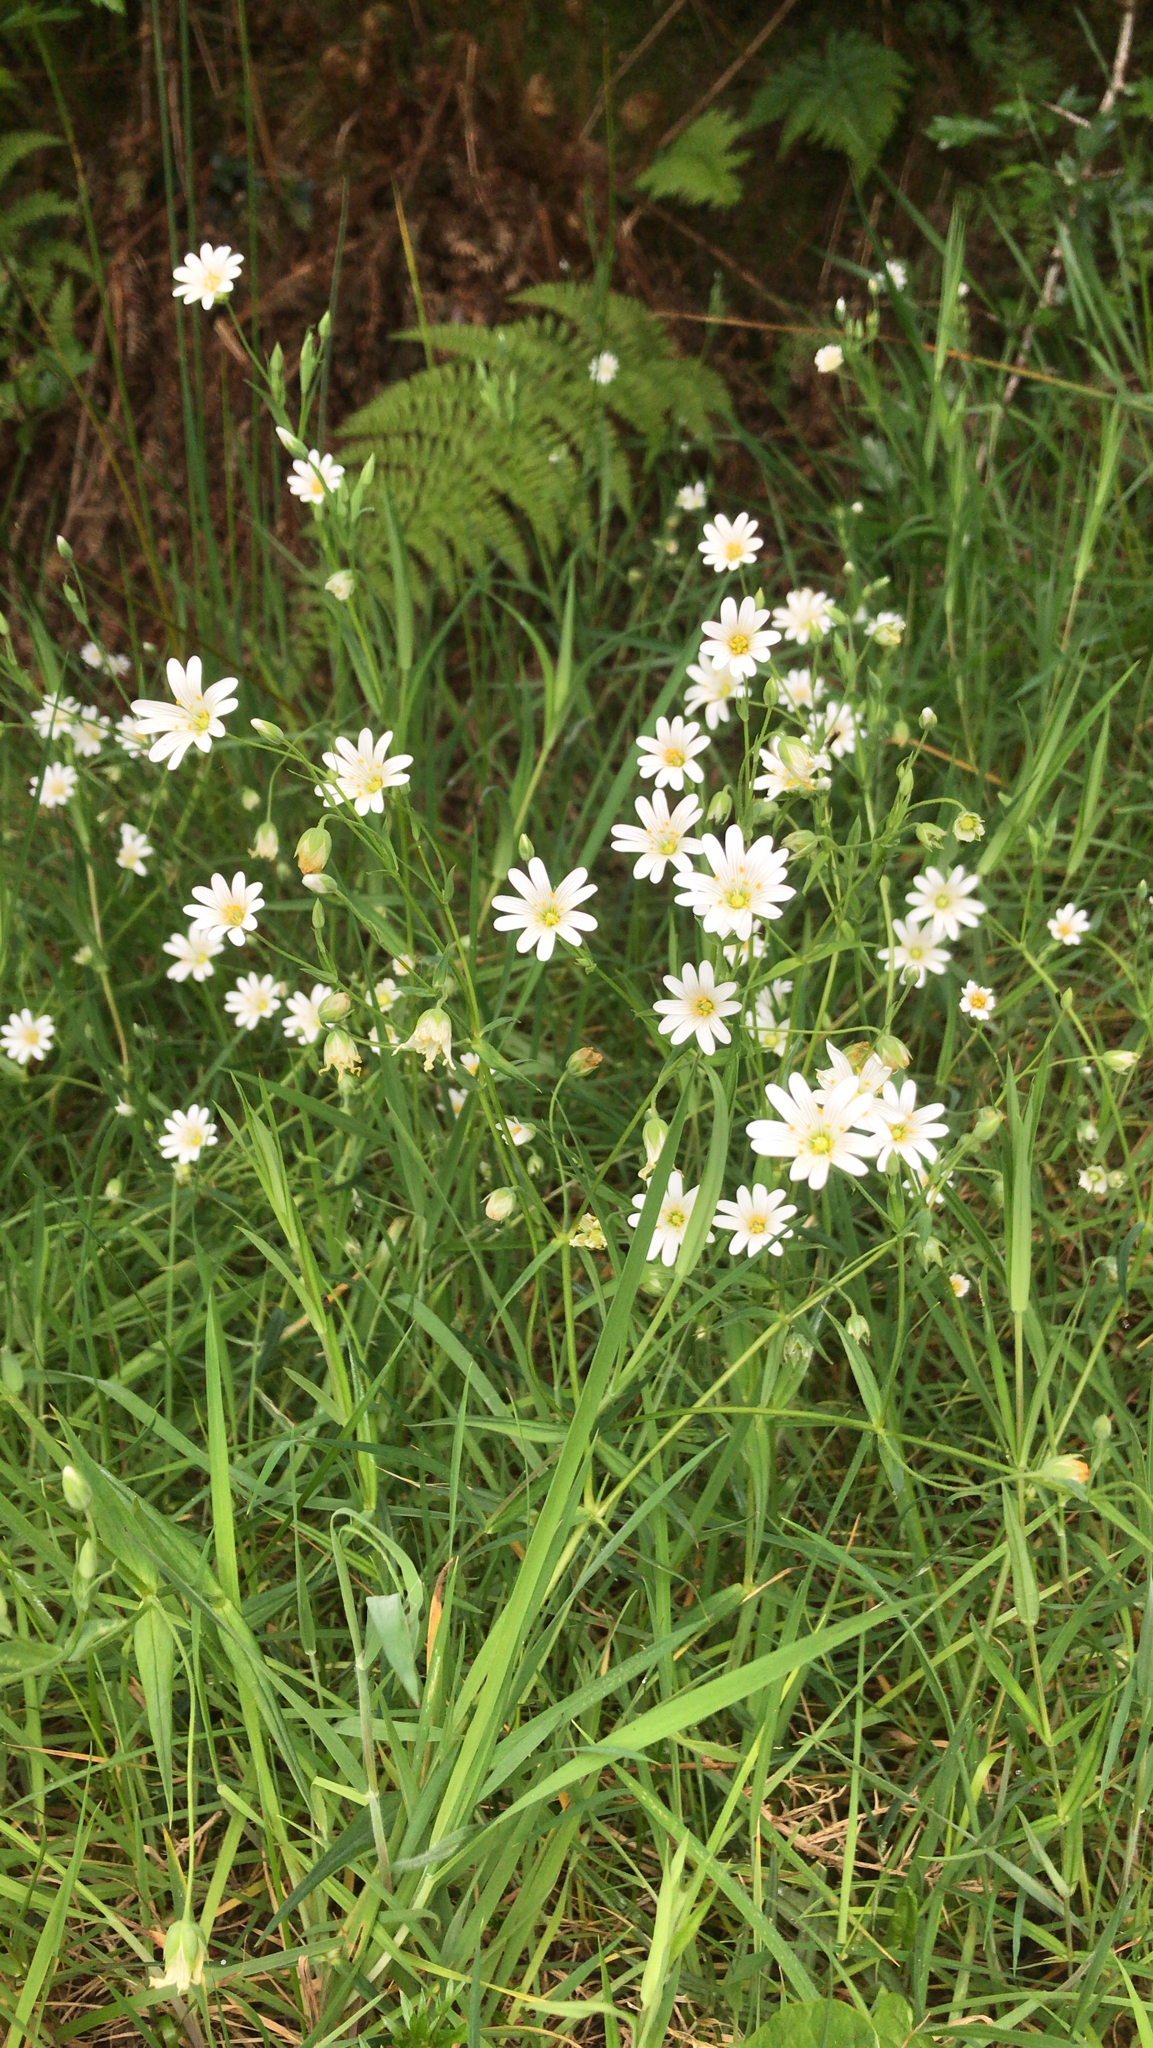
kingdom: Plantae
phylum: Tracheophyta
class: Magnoliopsida
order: Caryophyllales
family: Caryophyllaceae
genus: Rabelera
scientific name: Rabelera holostea
